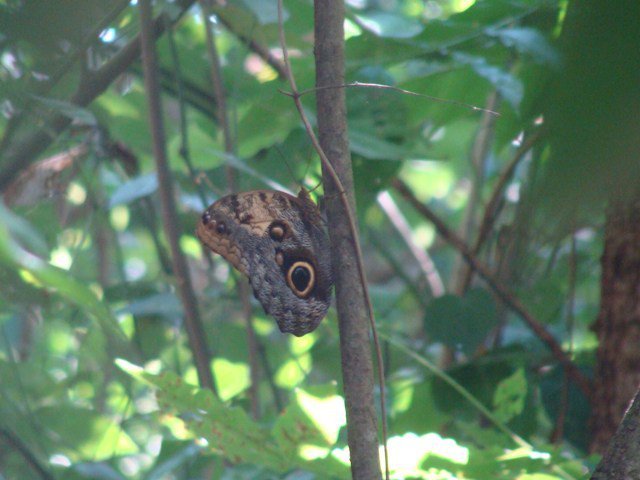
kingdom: Animalia
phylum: Arthropoda
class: Insecta
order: Lepidoptera
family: Nymphalidae
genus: Caligo
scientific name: Caligo telamonius
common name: Pale owl-butterfly
